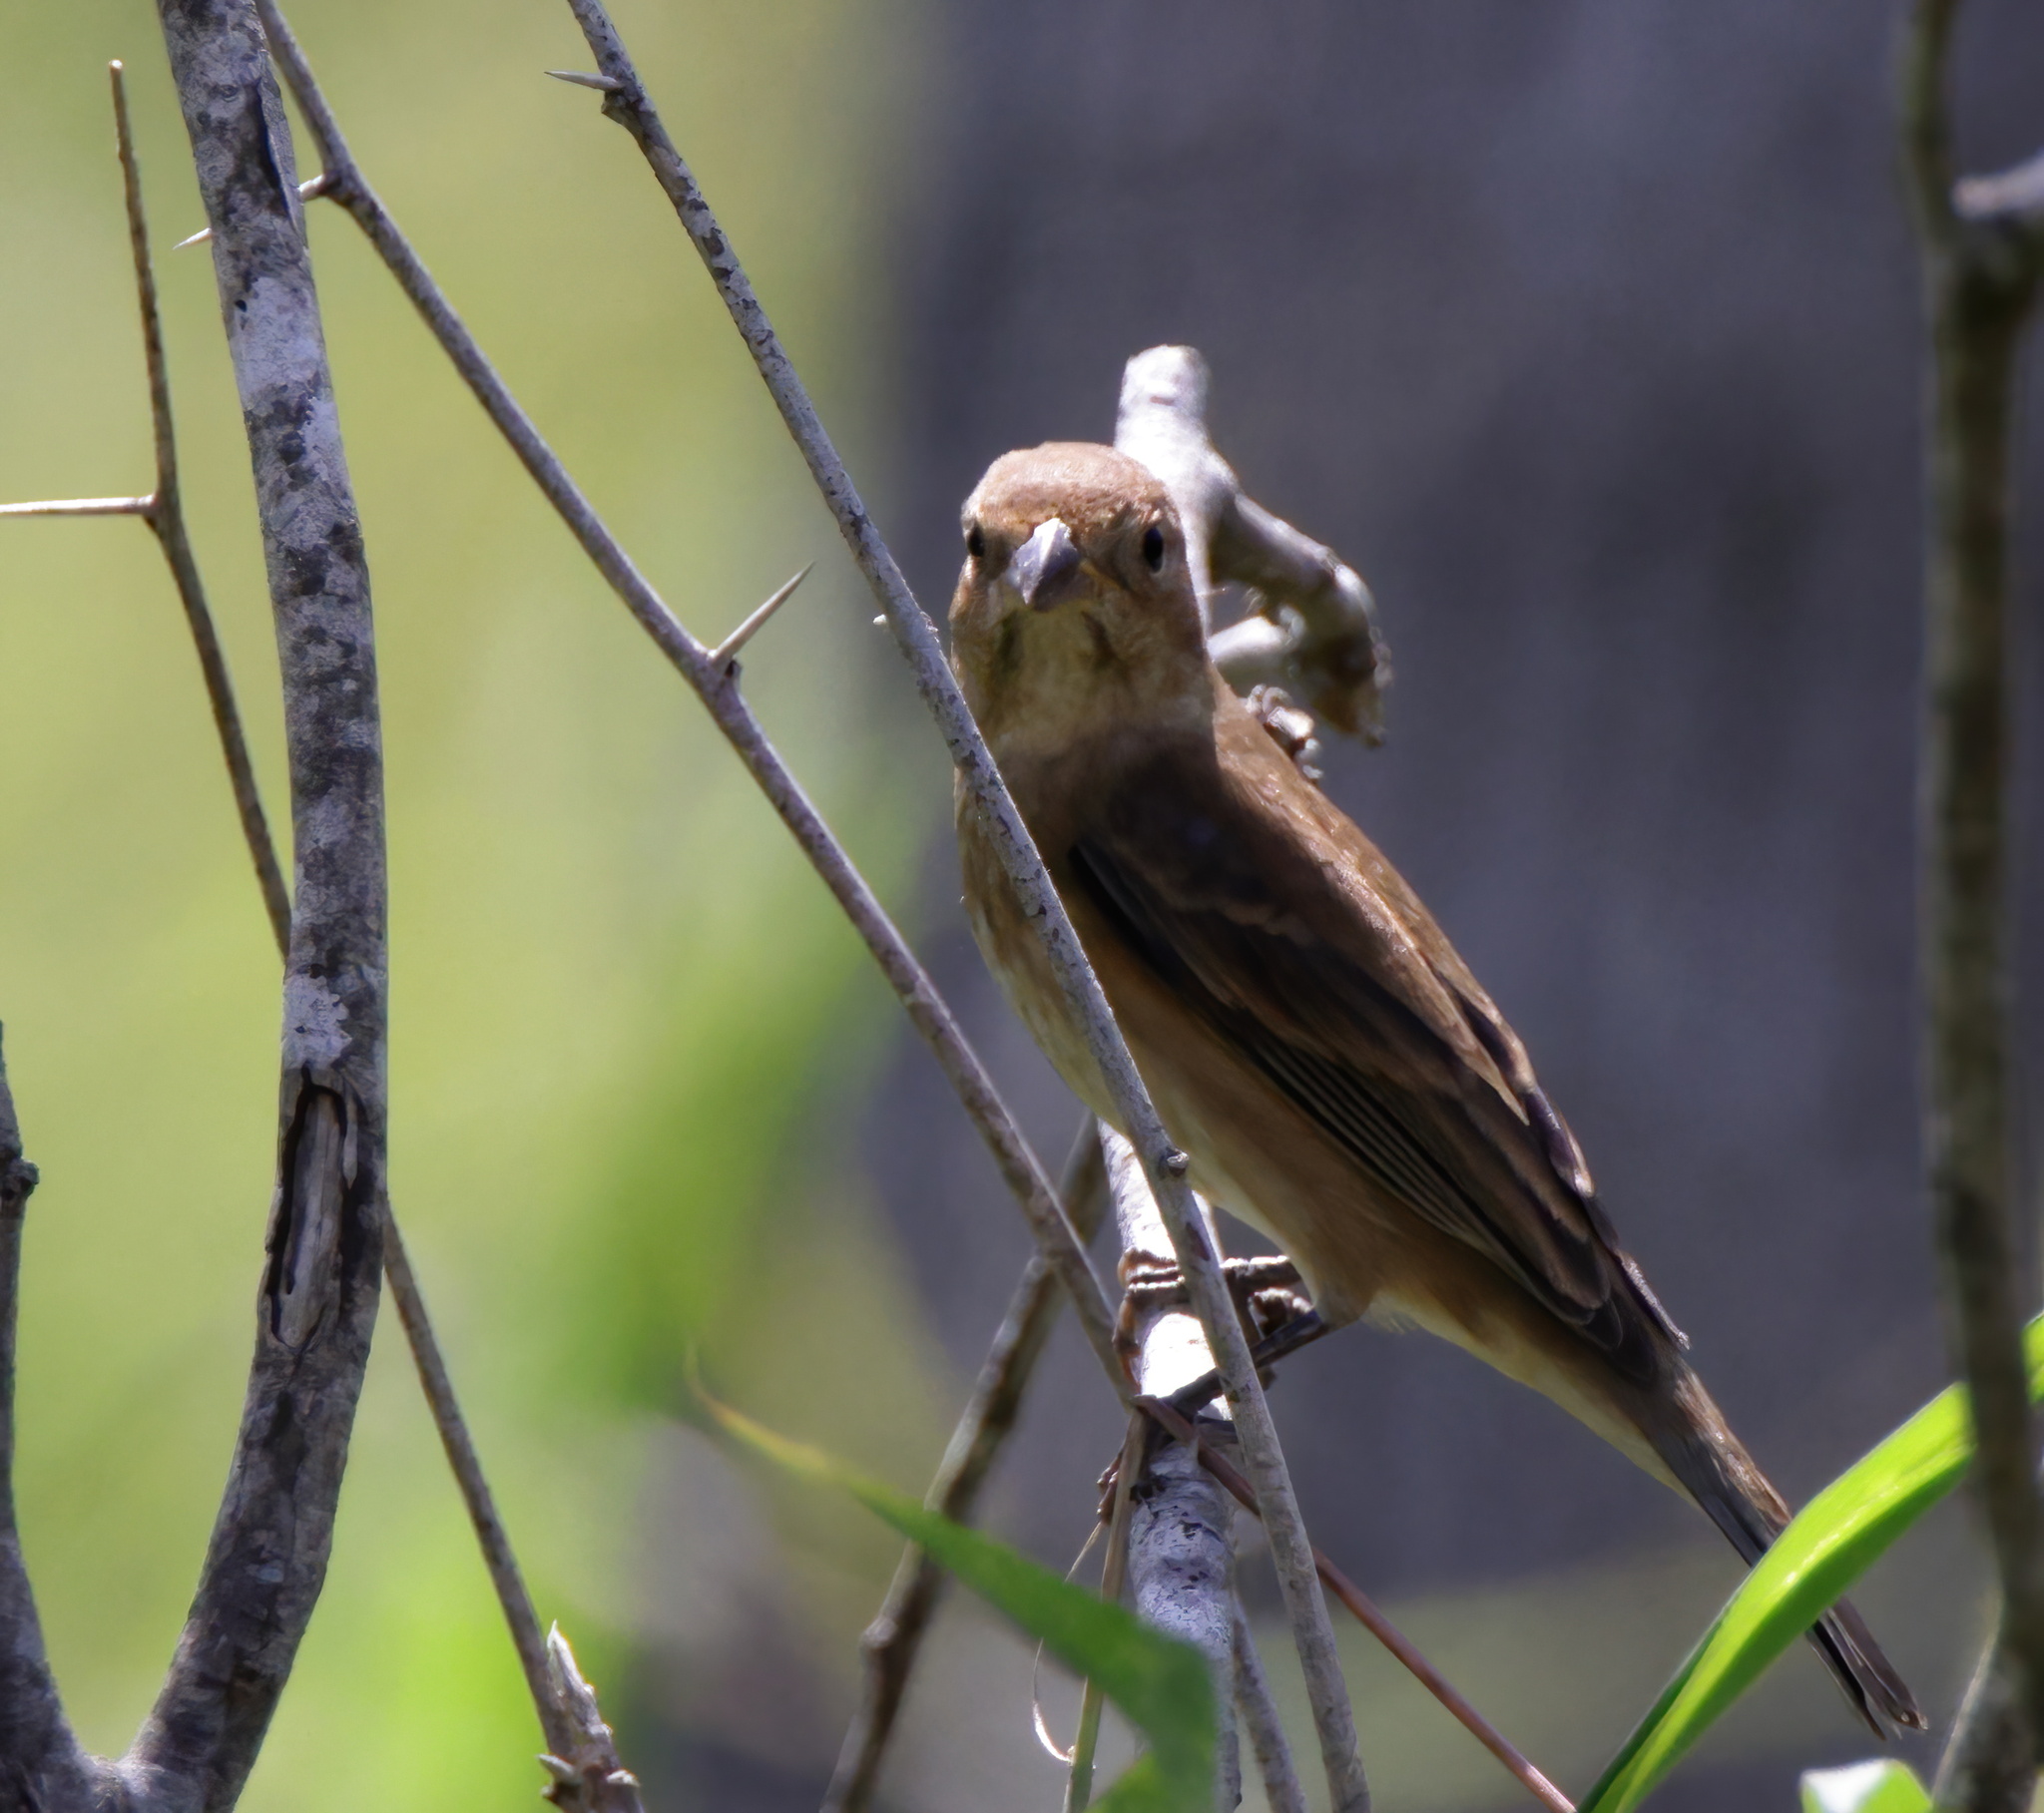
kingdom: Animalia
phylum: Chordata
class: Aves
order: Passeriformes
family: Cardinalidae
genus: Passerina
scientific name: Passerina cyanea
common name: Indigo bunting
